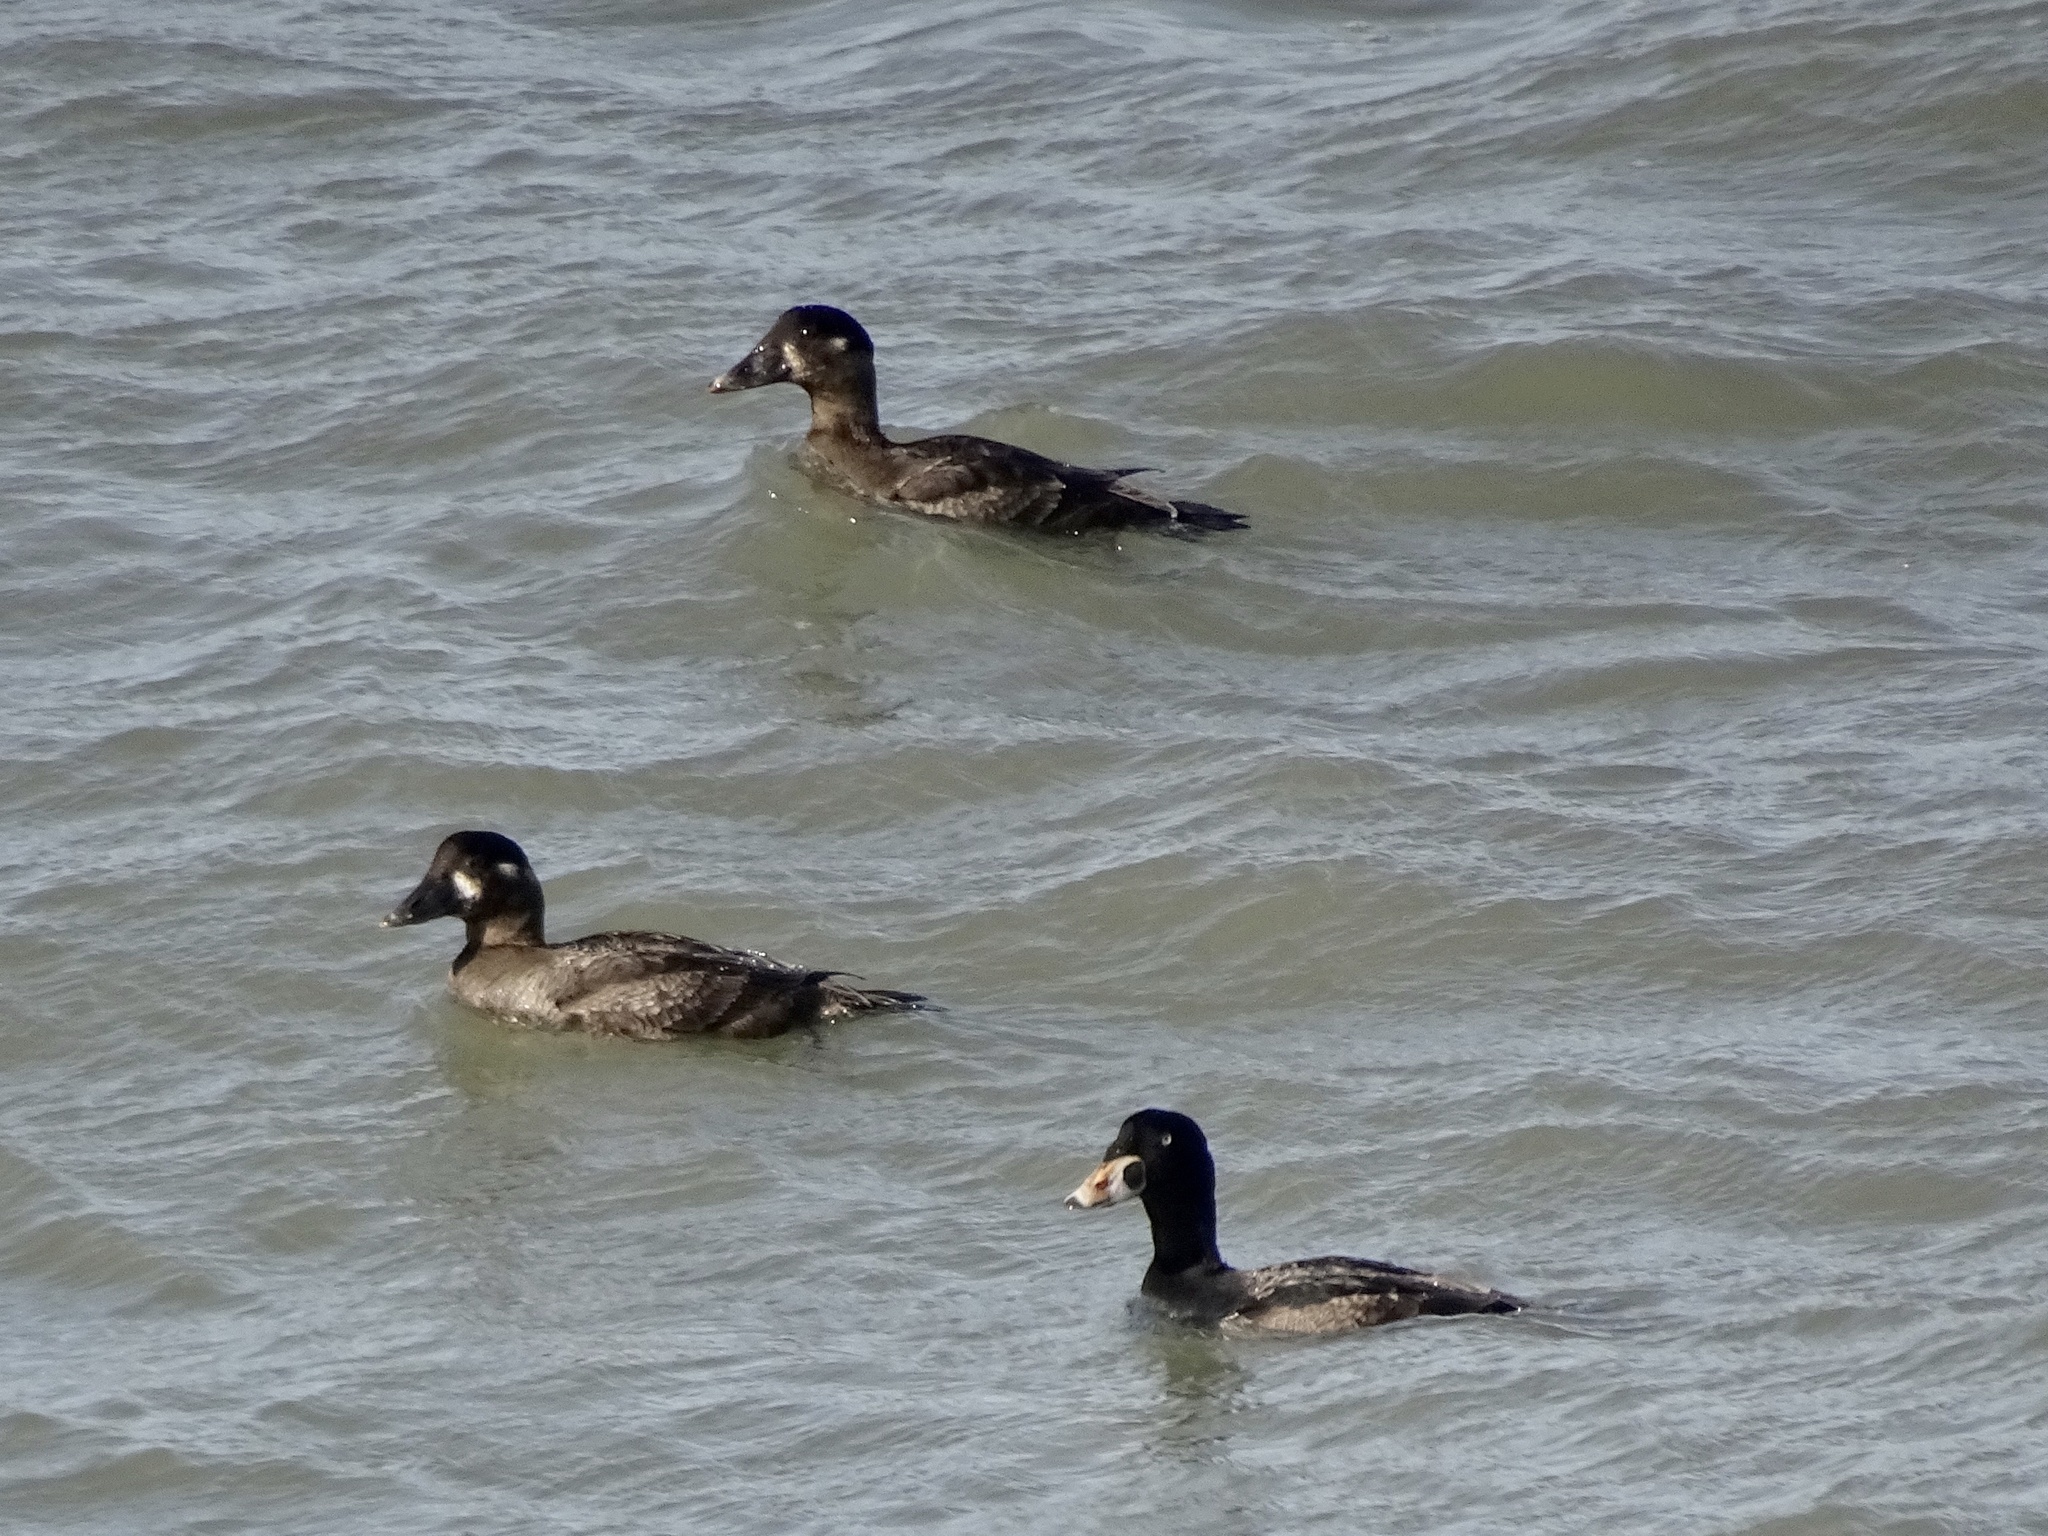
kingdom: Animalia
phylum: Chordata
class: Aves
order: Anseriformes
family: Anatidae
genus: Melanitta
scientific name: Melanitta perspicillata
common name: Surf scoter
